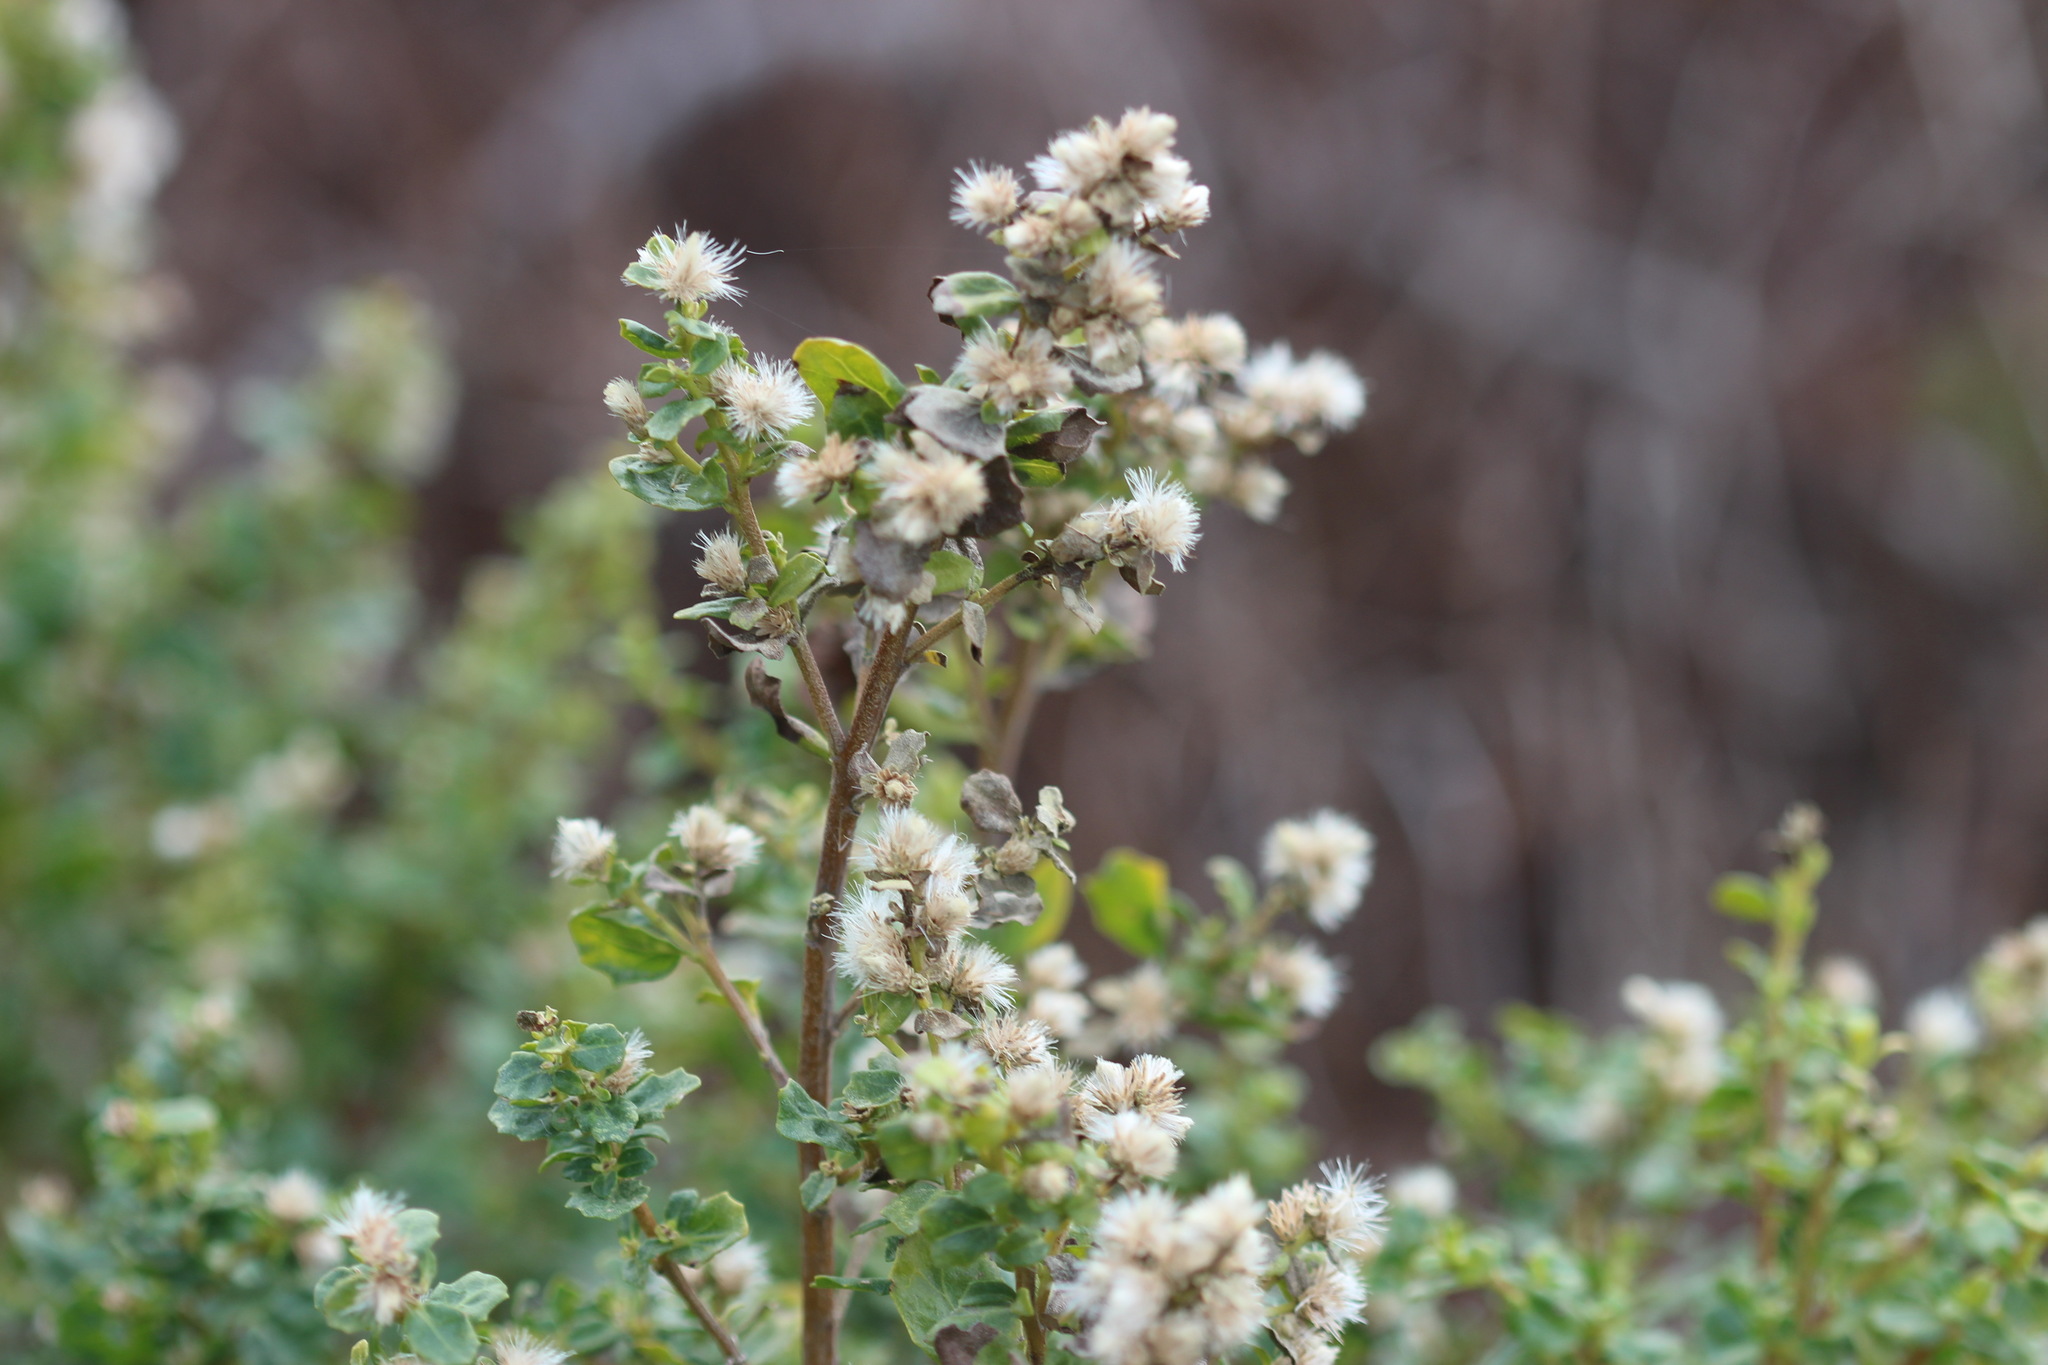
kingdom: Plantae
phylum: Tracheophyta
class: Magnoliopsida
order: Asterales
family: Asteraceae
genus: Baccharis
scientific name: Baccharis pilularis
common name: Coyotebrush
